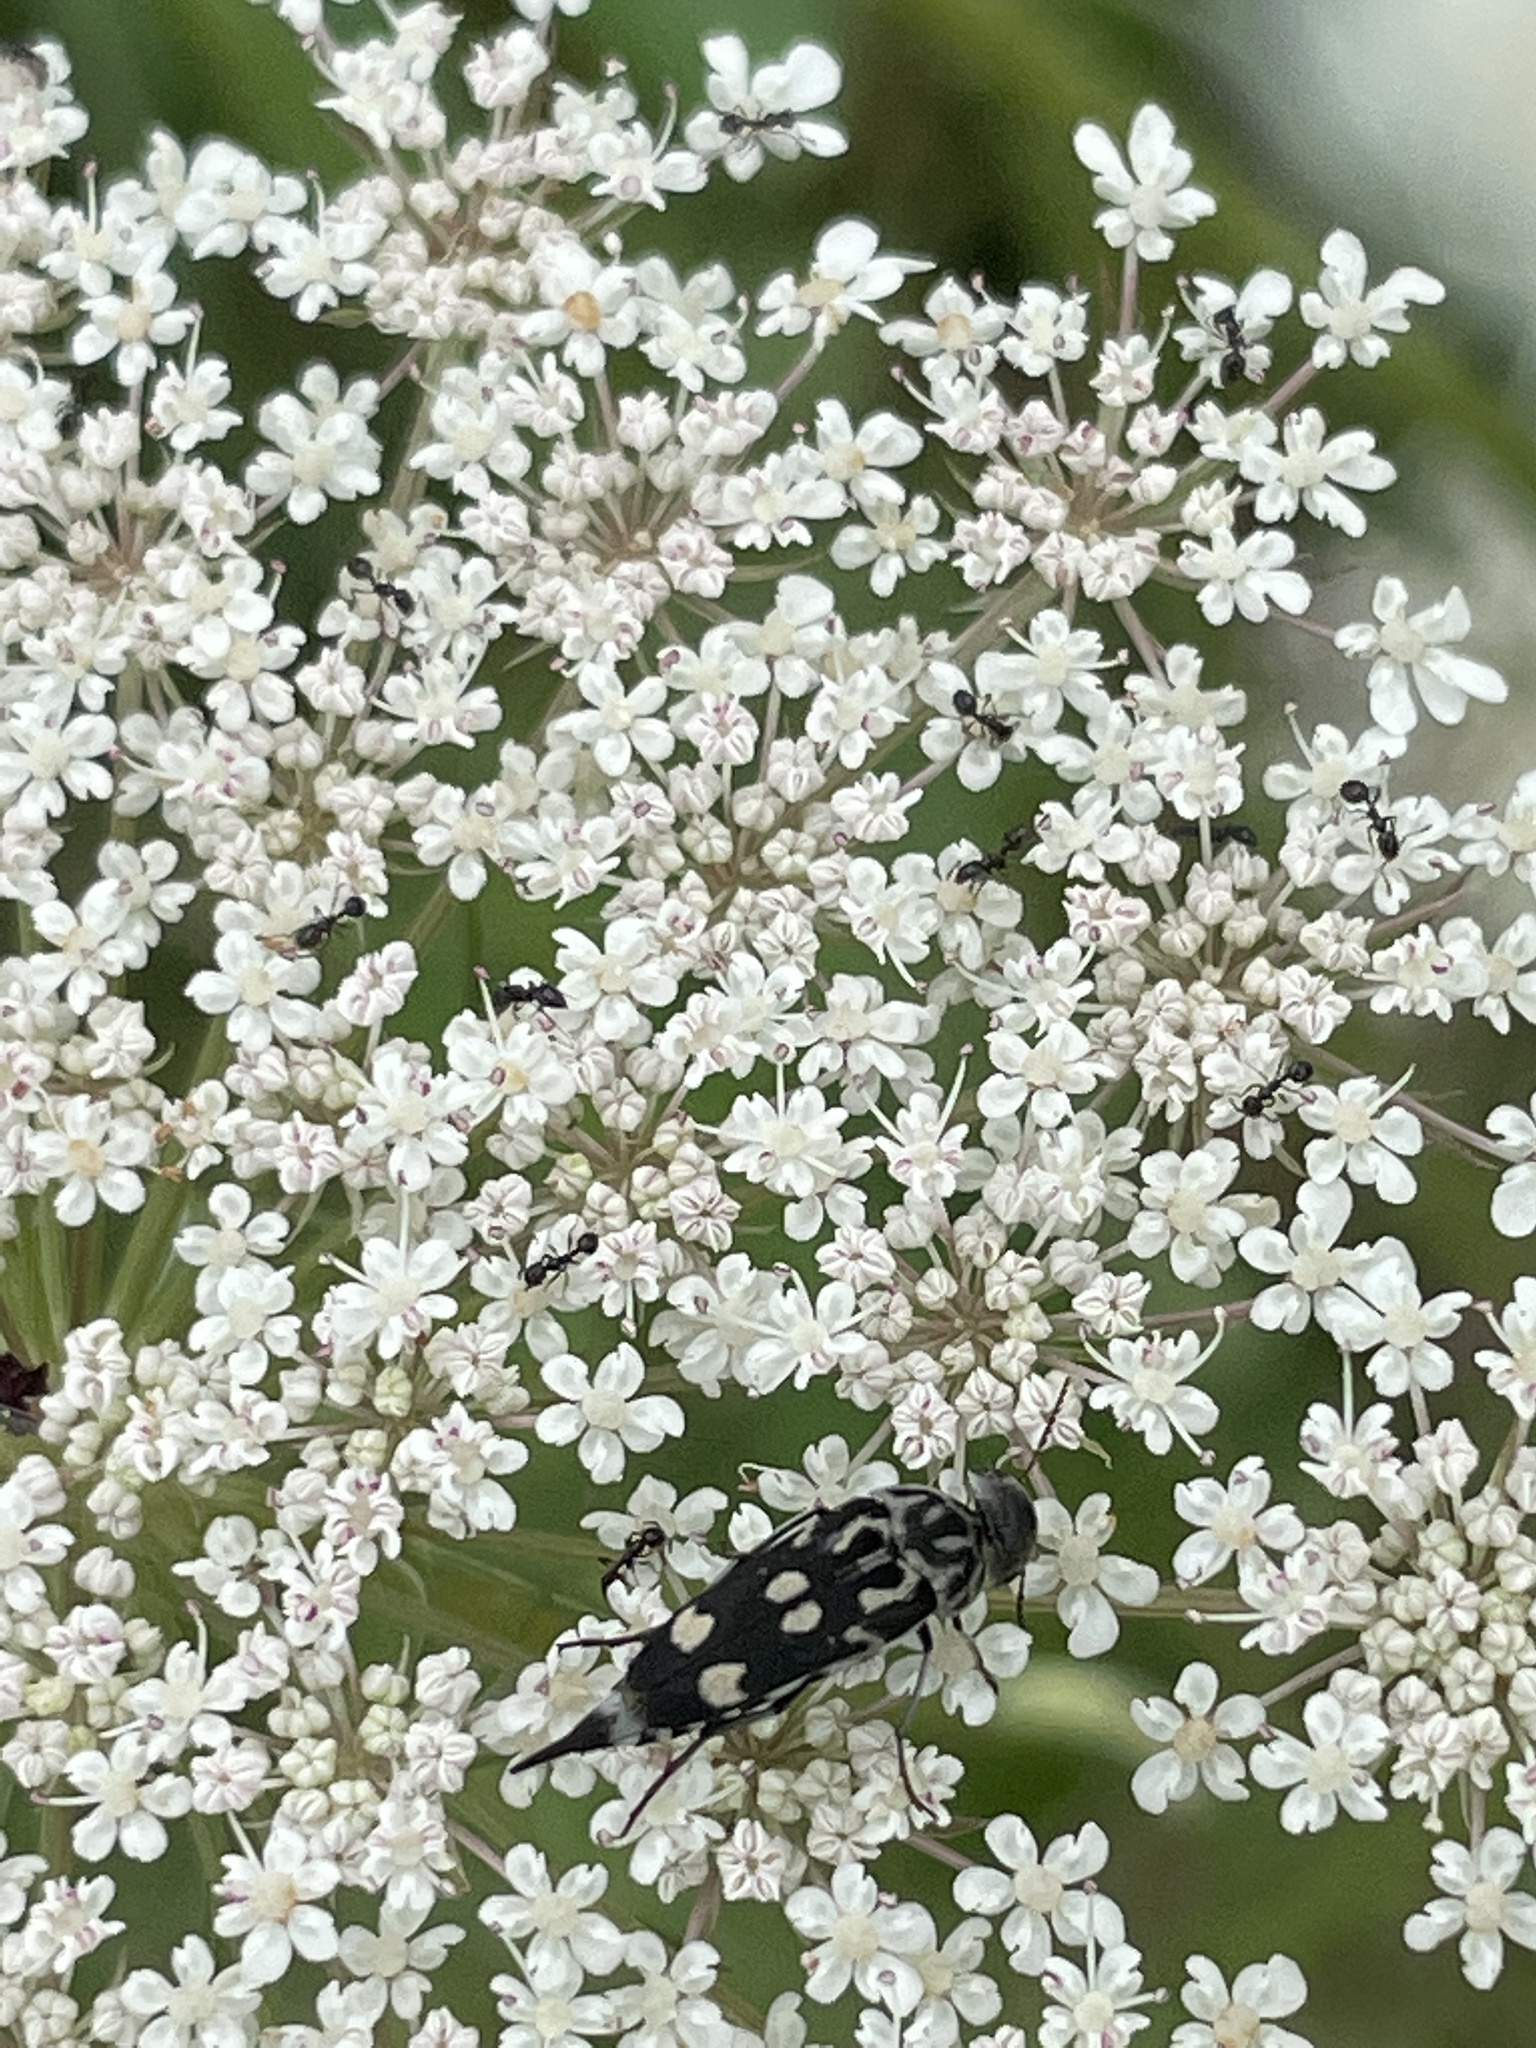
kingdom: Animalia
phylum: Arthropoda
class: Insecta
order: Coleoptera
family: Mordellidae
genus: Hoshihananomia
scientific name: Hoshihananomia octopunctata
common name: Eight-spotted tumbling flower beetle
